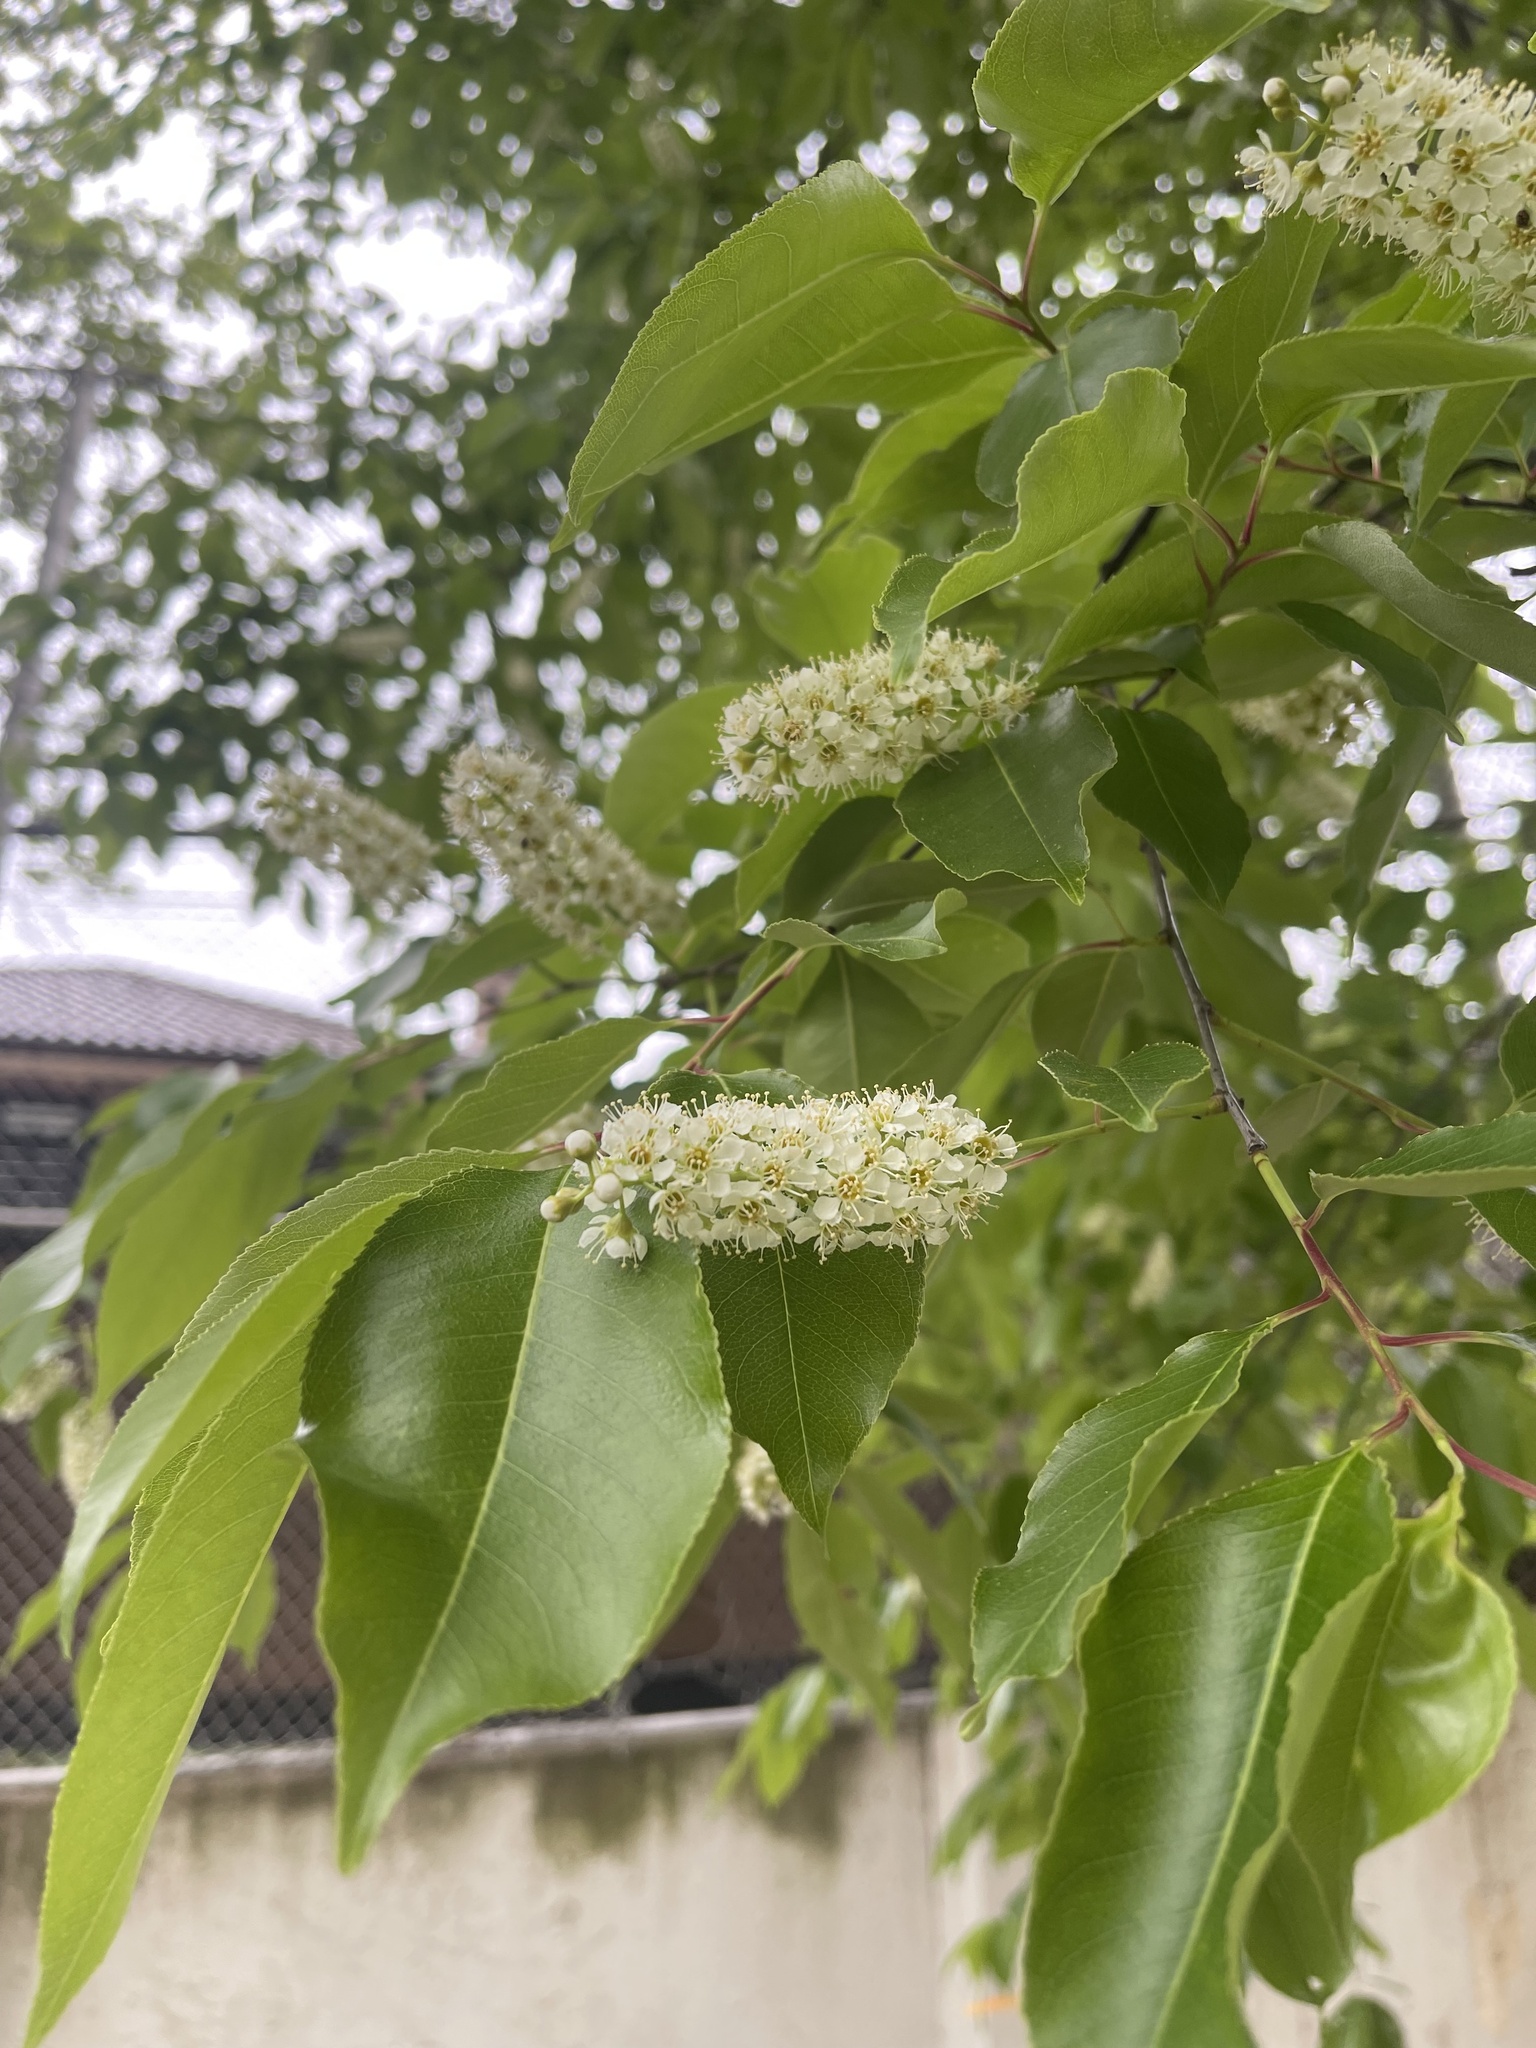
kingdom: Plantae
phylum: Tracheophyta
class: Magnoliopsida
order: Rosales
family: Rosaceae
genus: Prunus
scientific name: Prunus serotina
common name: Black cherry
